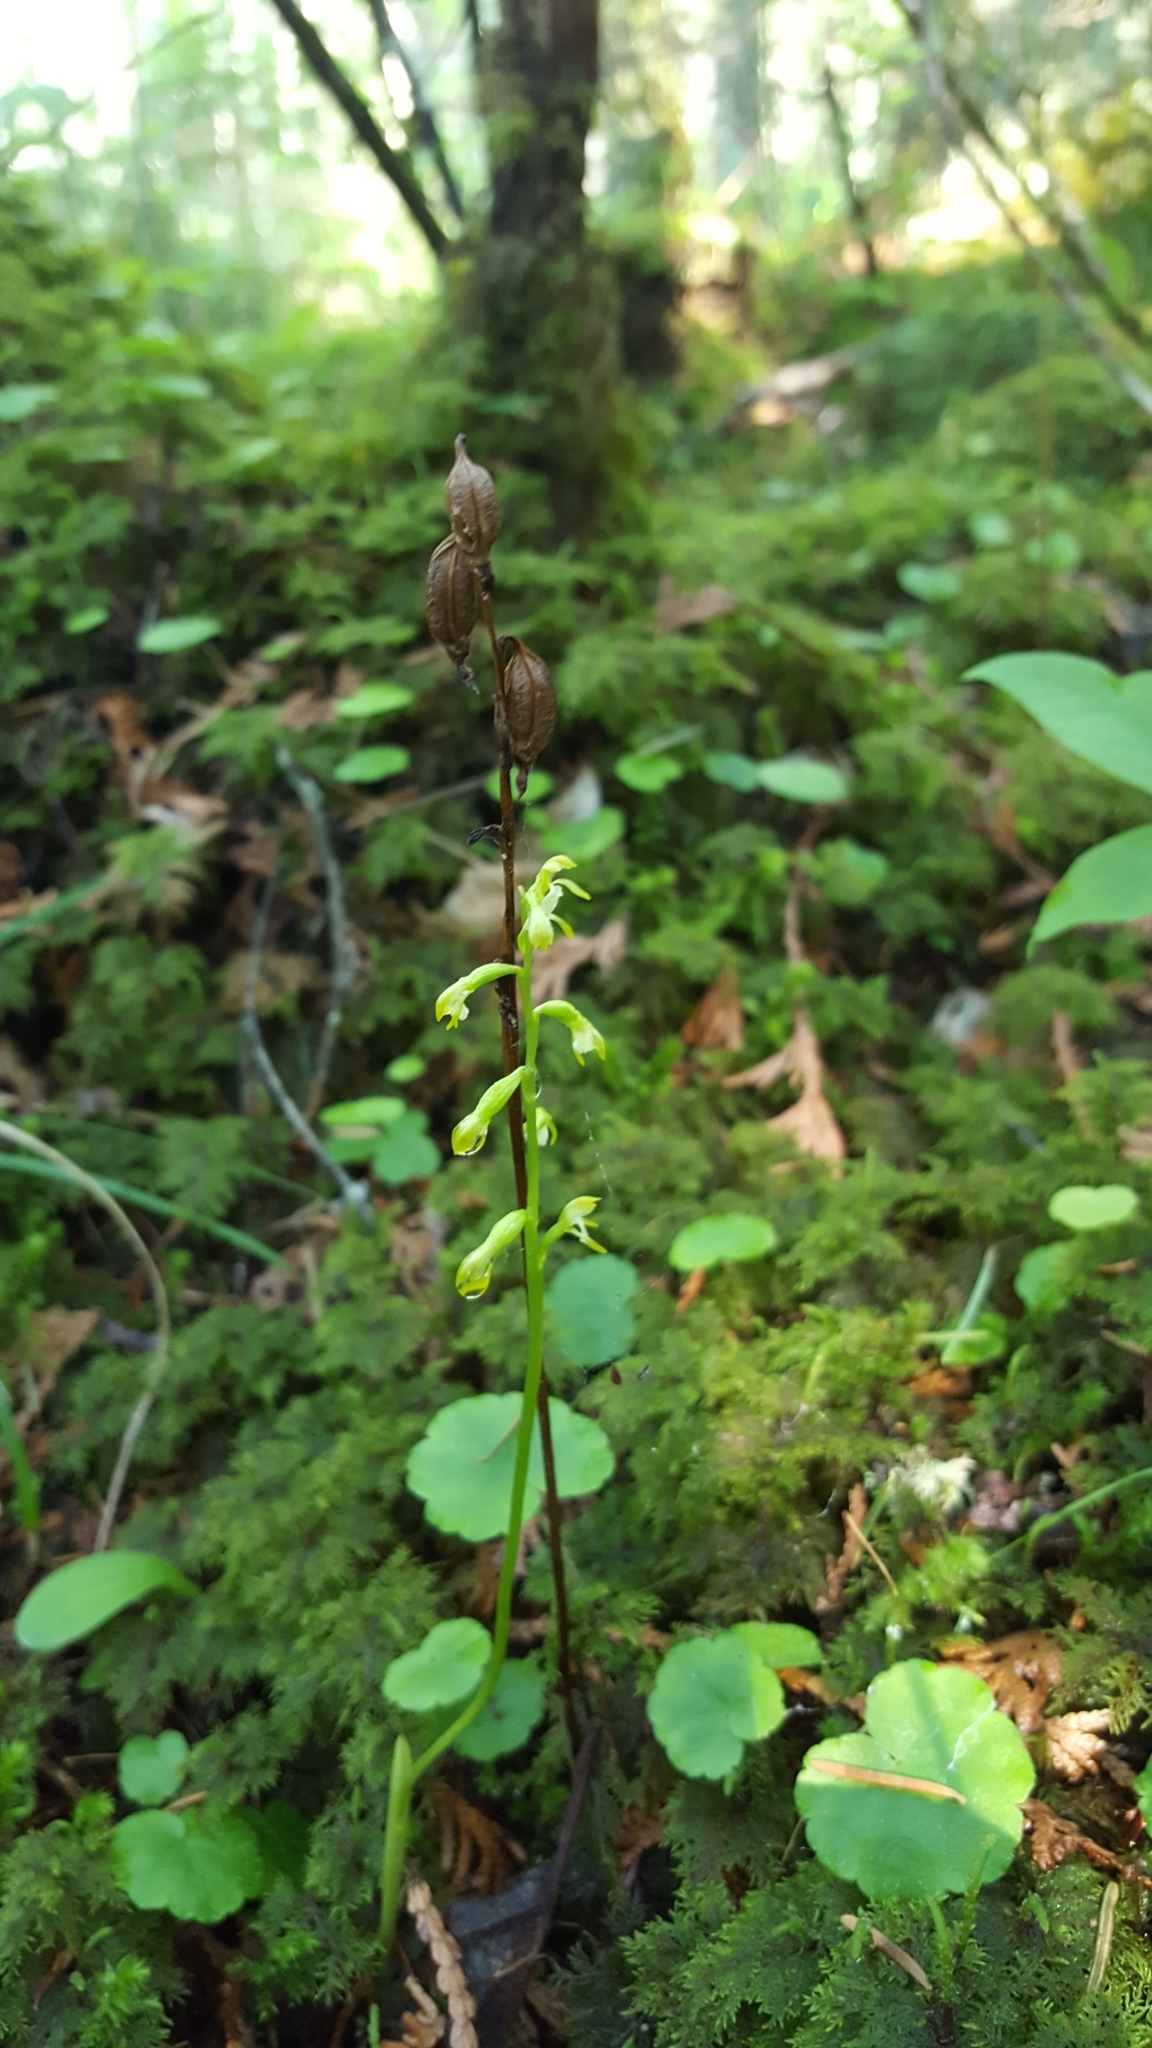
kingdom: Plantae
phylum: Tracheophyta
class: Liliopsida
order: Asparagales
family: Orchidaceae
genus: Corallorhiza
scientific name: Corallorhiza trifida
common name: Yellow coralroot
